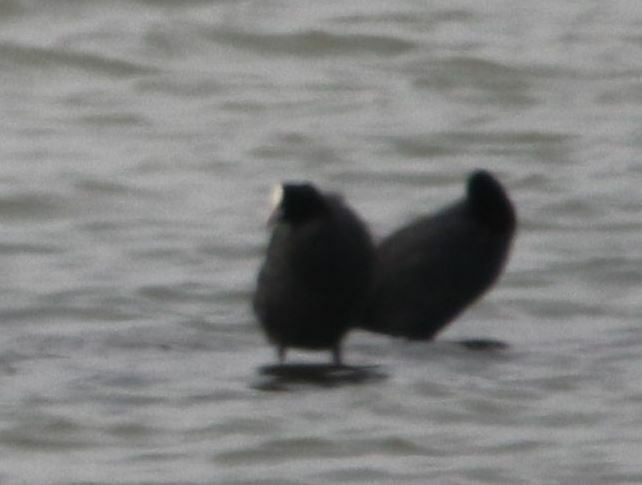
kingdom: Animalia
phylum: Chordata
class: Aves
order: Gruiformes
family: Rallidae
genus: Fulica
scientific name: Fulica atra
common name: Eurasian coot
